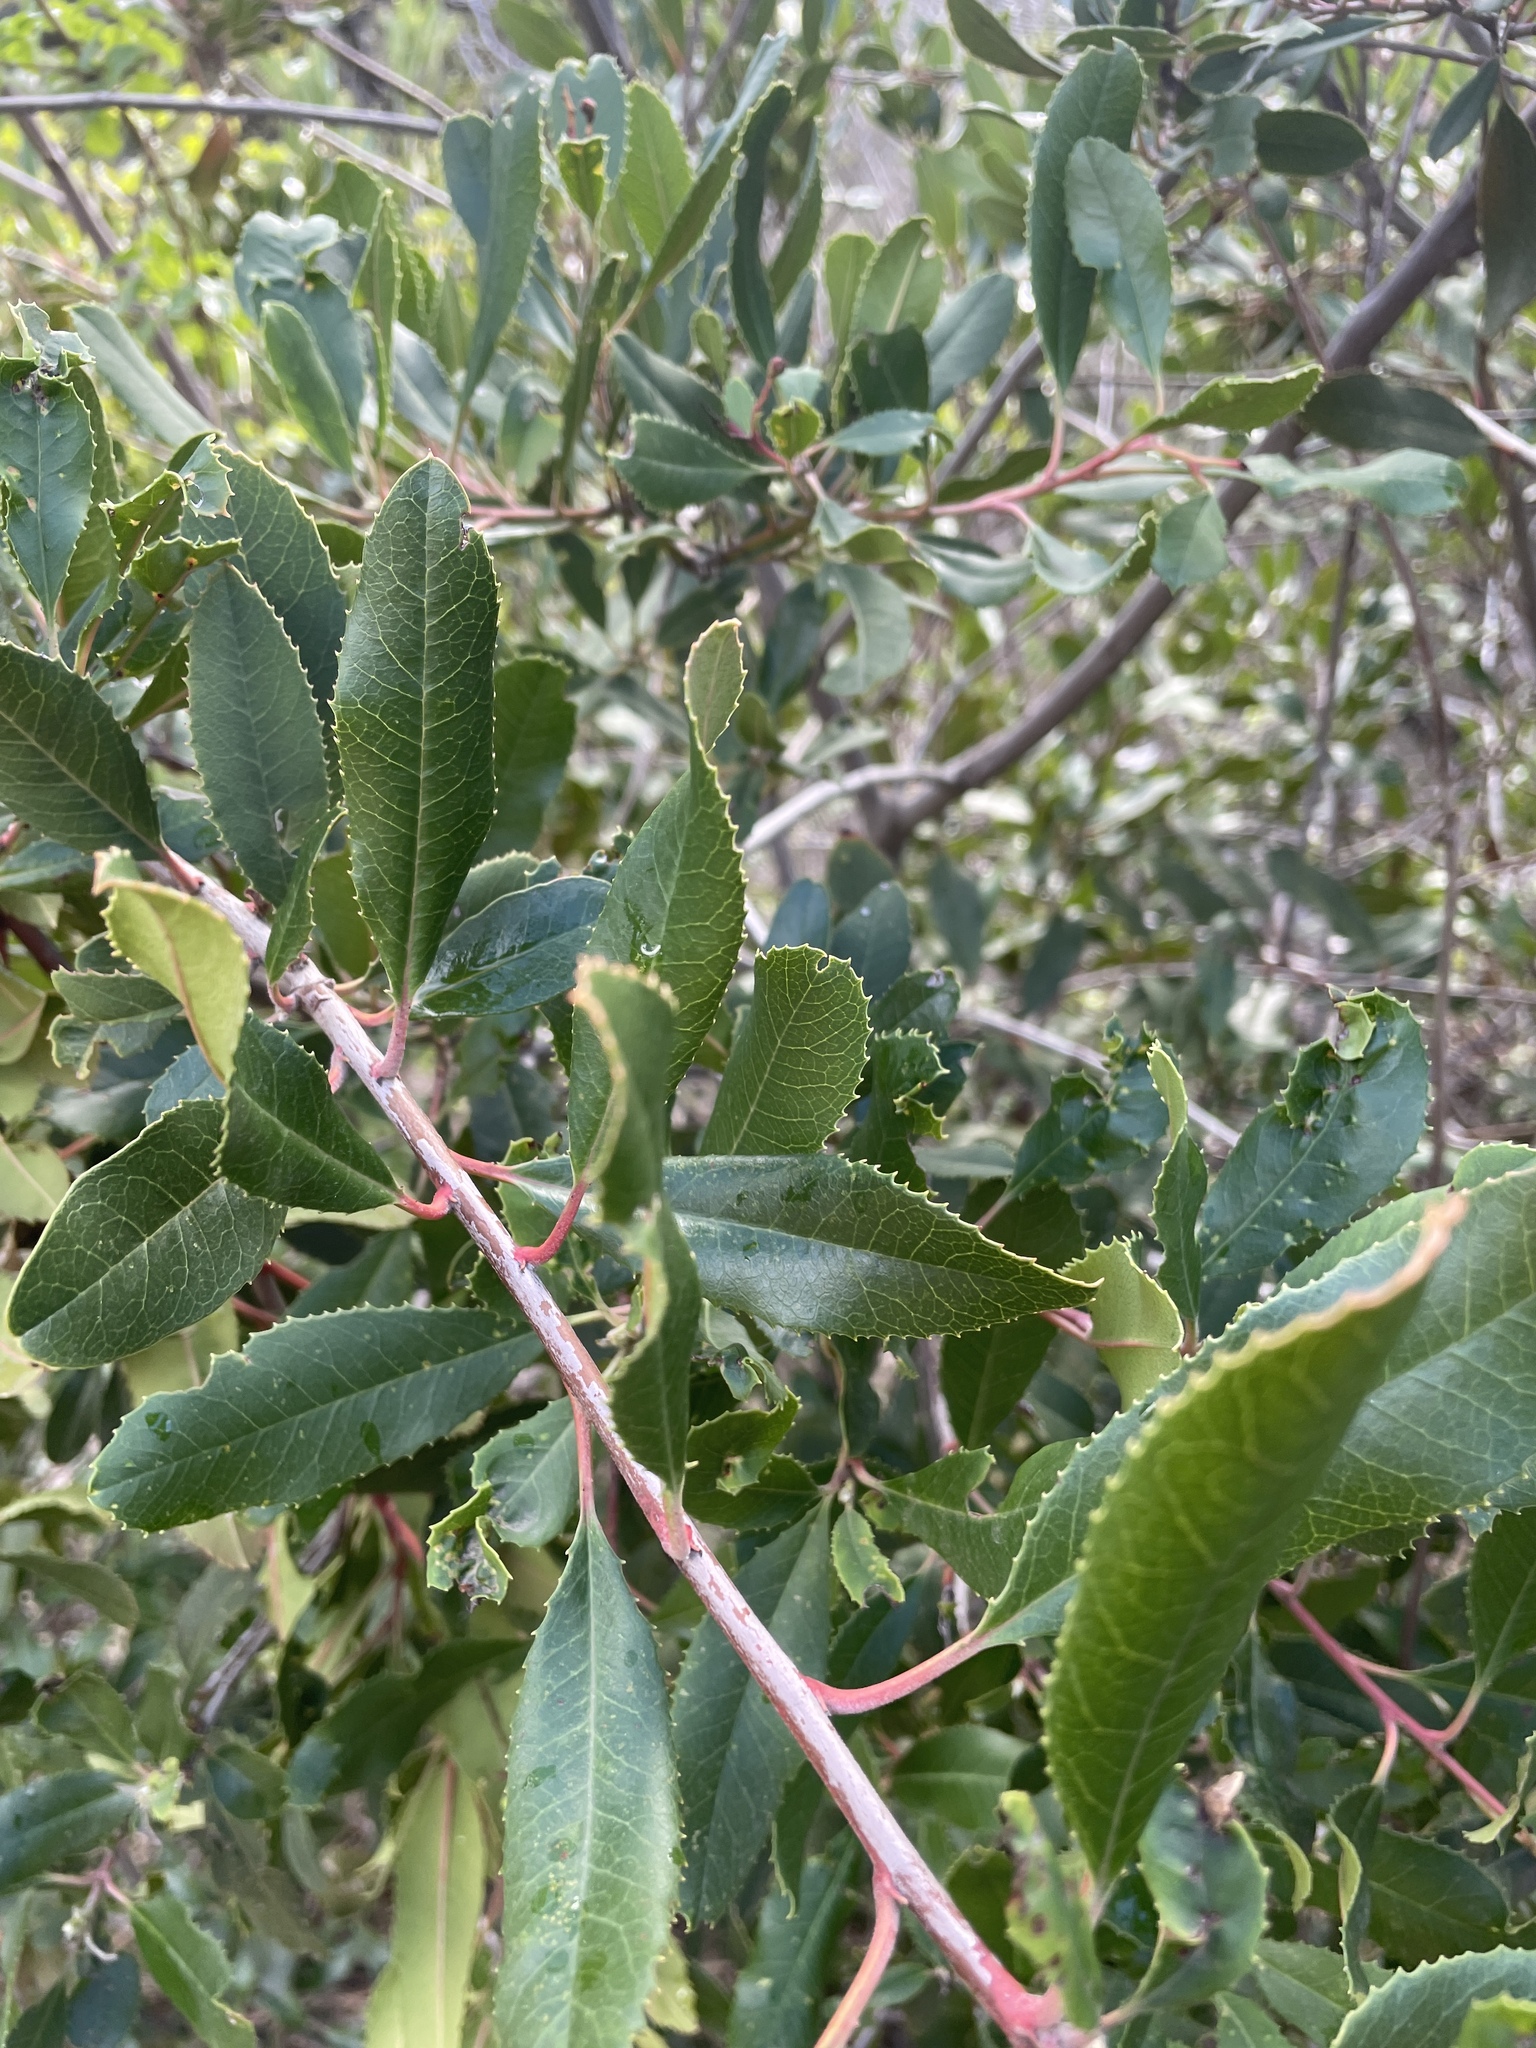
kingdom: Plantae
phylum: Tracheophyta
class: Magnoliopsida
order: Rosales
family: Rosaceae
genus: Heteromeles
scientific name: Heteromeles arbutifolia
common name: California-holly
